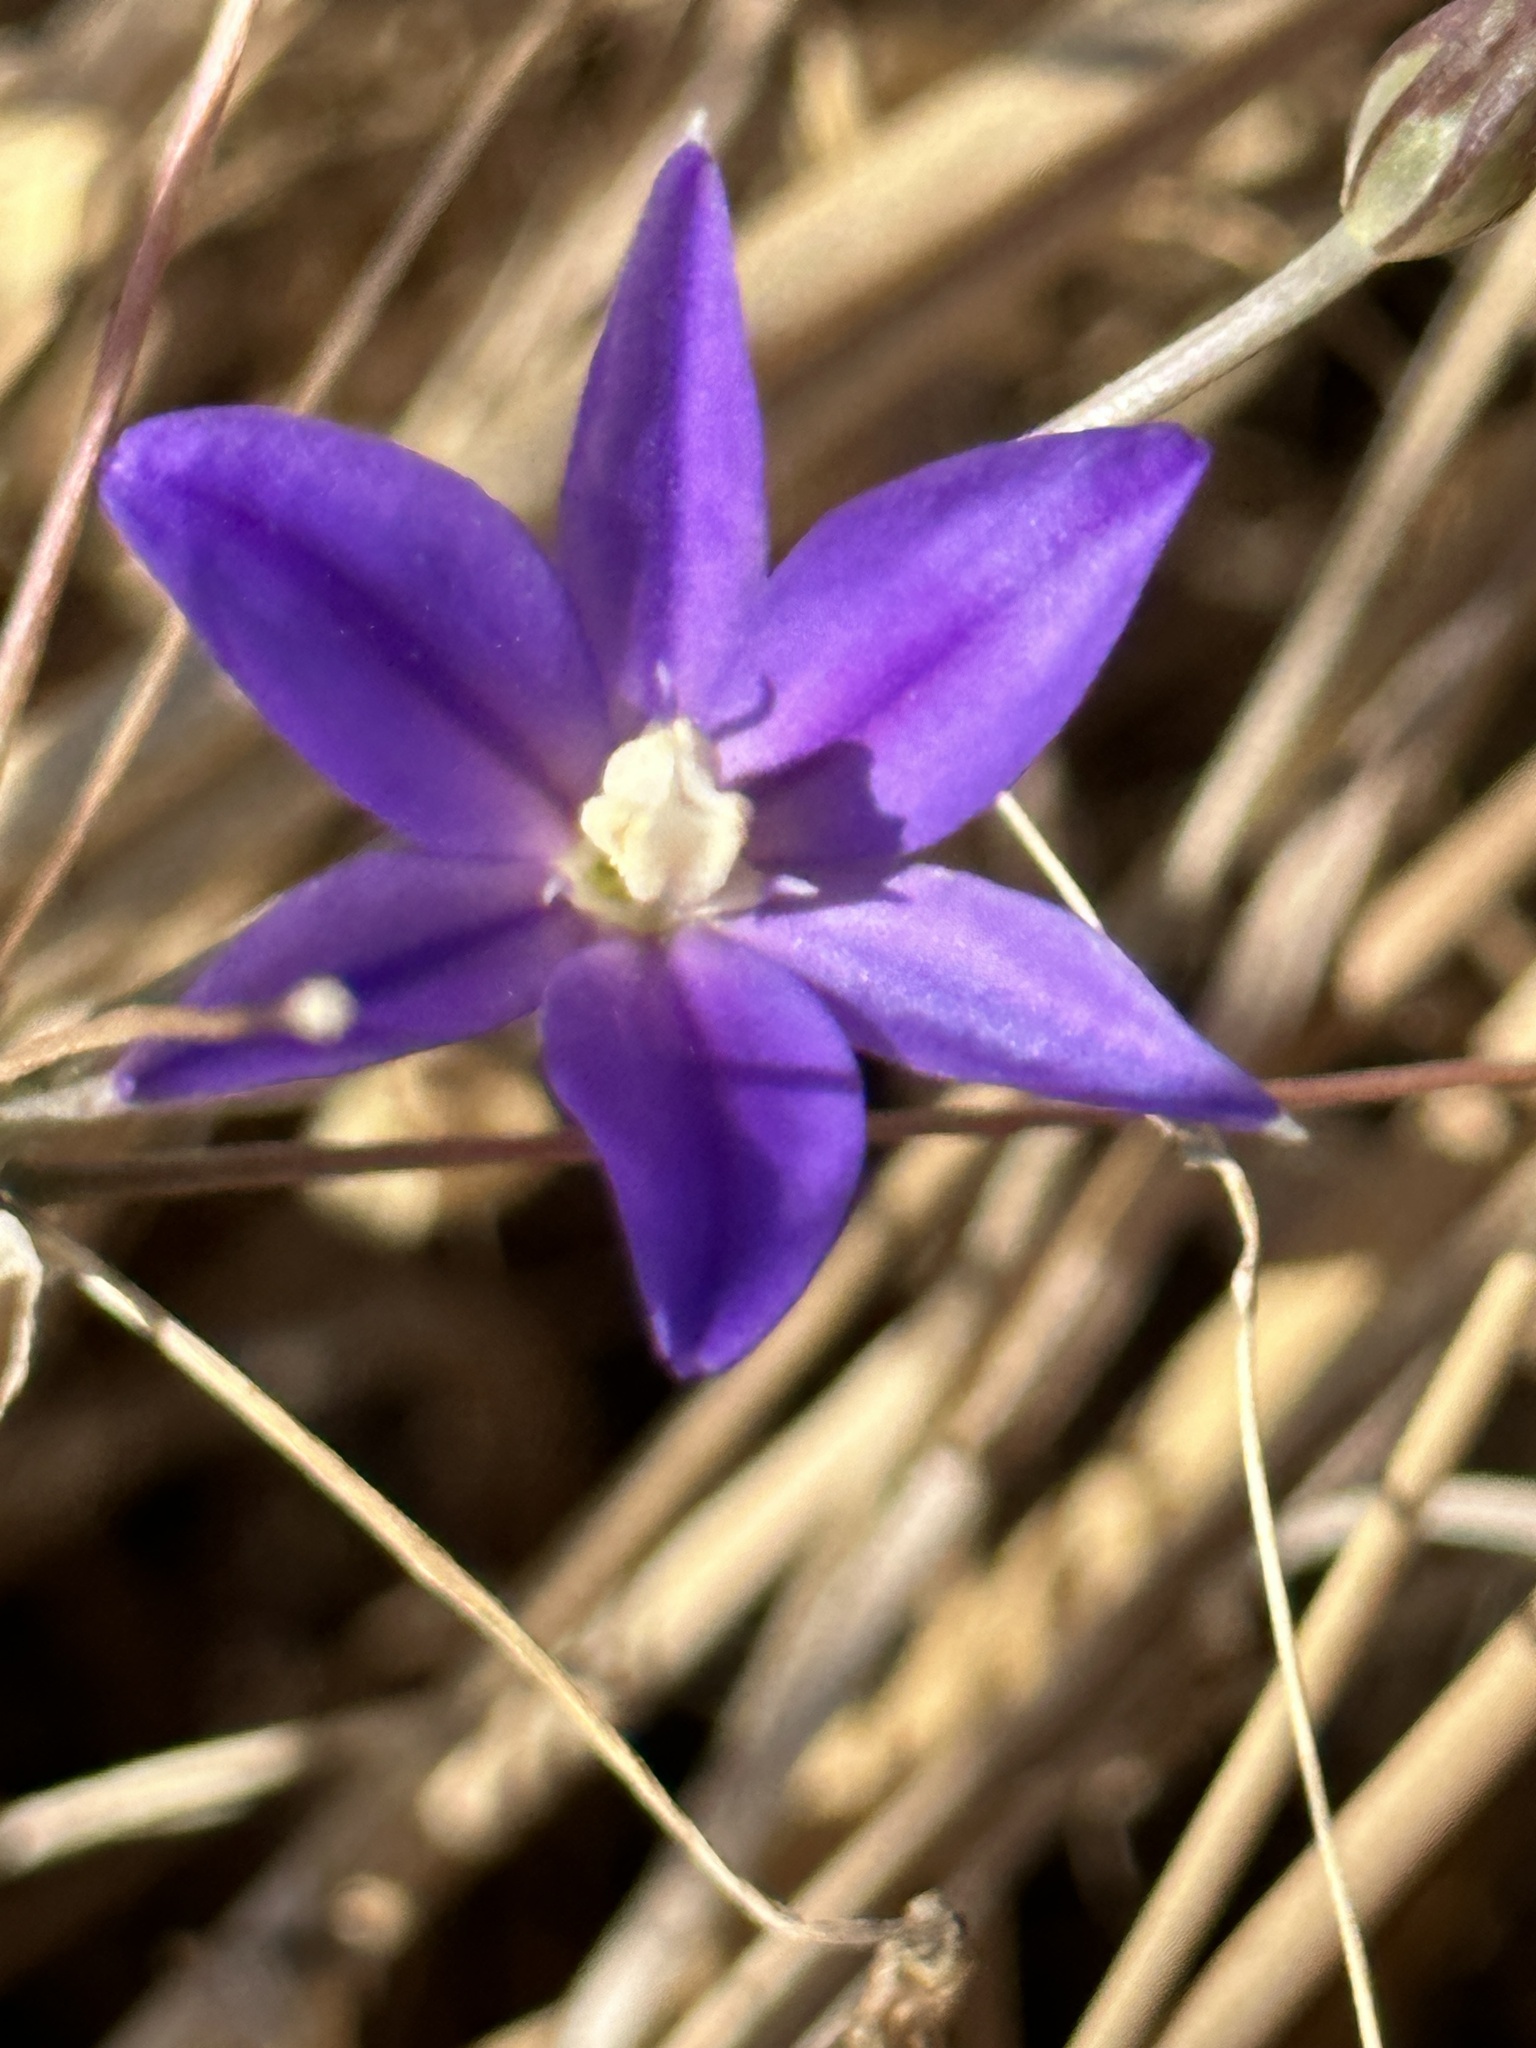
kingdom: Plantae
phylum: Tracheophyta
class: Liliopsida
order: Asparagales
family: Asparagaceae
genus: Brodiaea
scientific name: Brodiaea filifolia
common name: Threadleaf brodiaea
